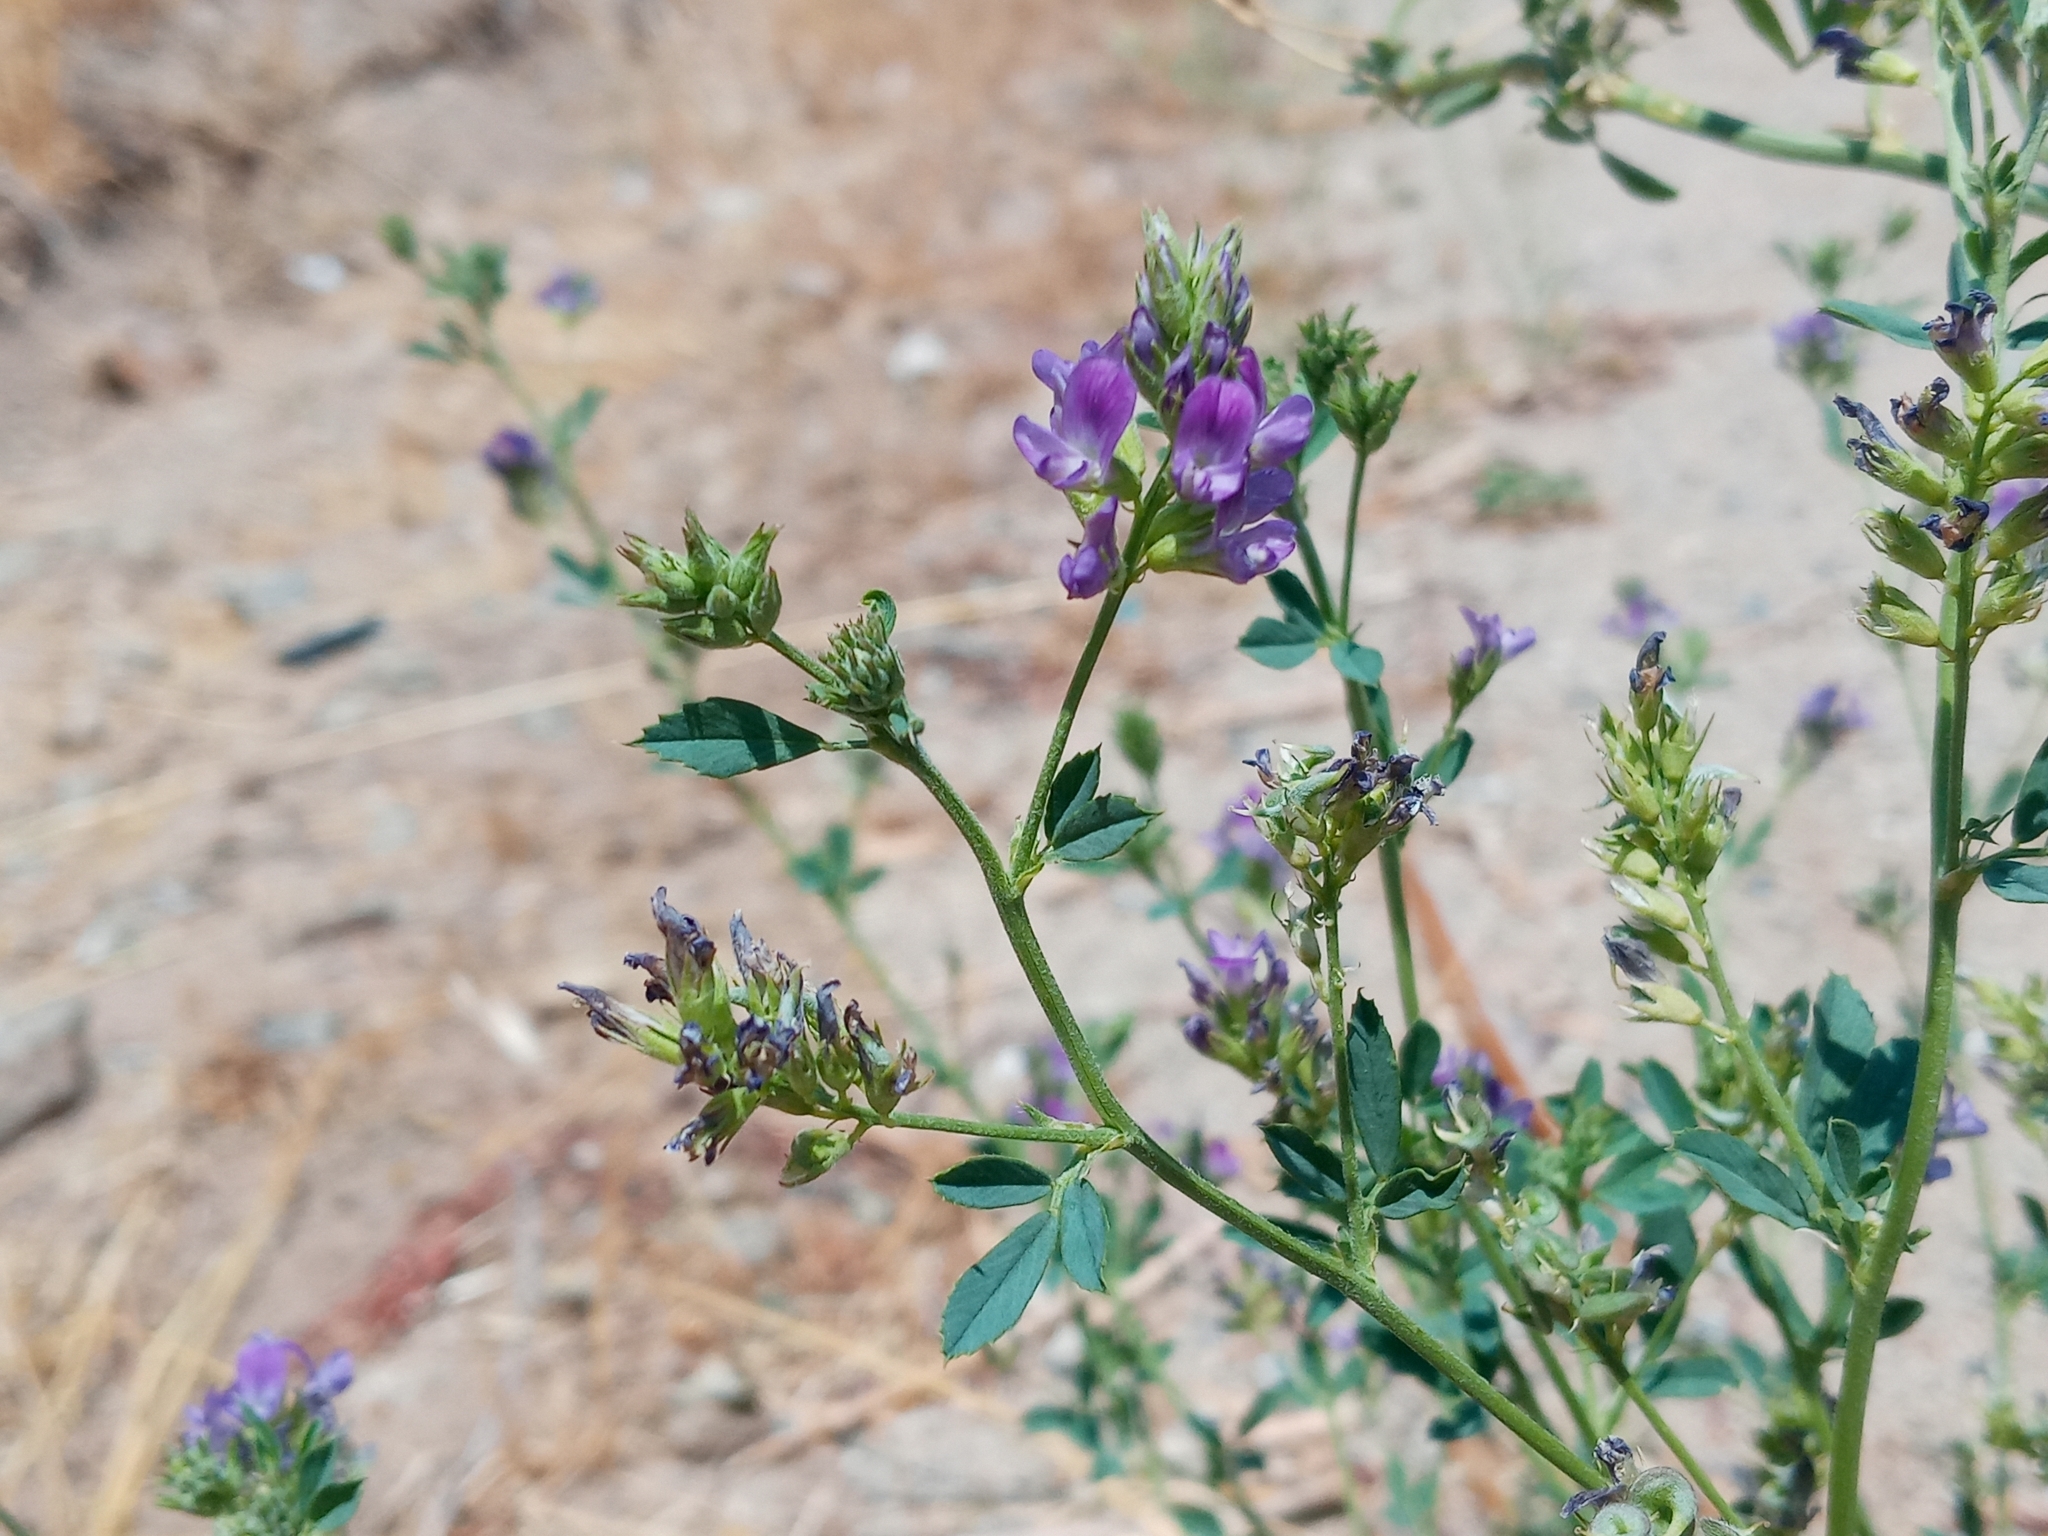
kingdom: Plantae
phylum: Tracheophyta
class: Magnoliopsida
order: Fabales
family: Fabaceae
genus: Medicago
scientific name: Medicago sativa
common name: Alfalfa
